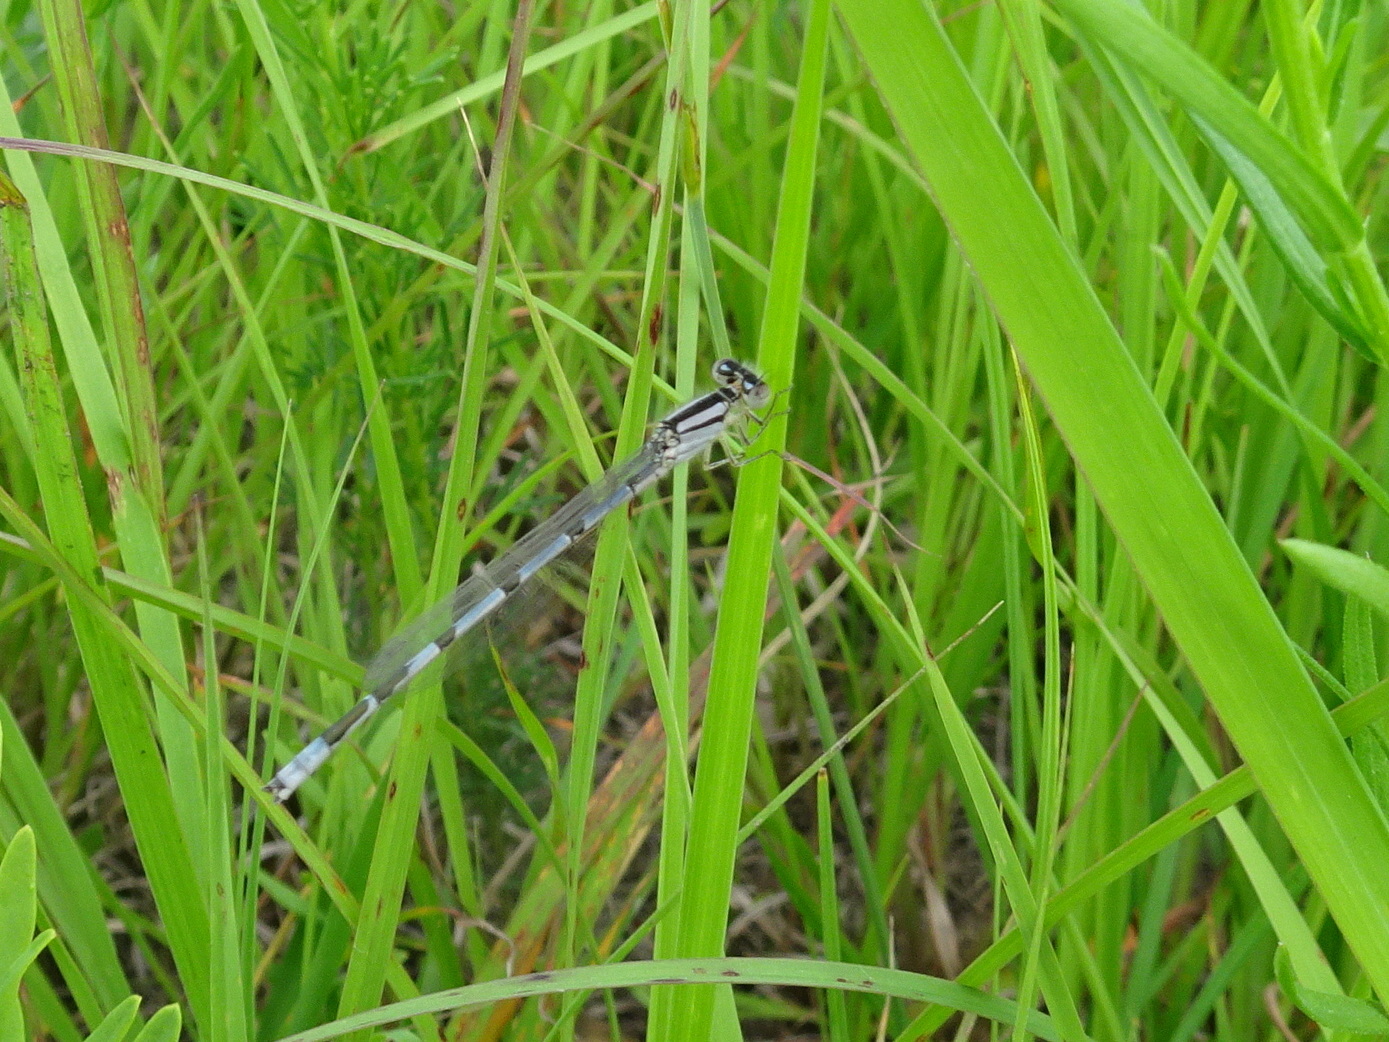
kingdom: Animalia
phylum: Arthropoda
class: Insecta
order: Odonata
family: Coenagrionidae
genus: Enallagma
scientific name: Enallagma civile
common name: Damselfly
